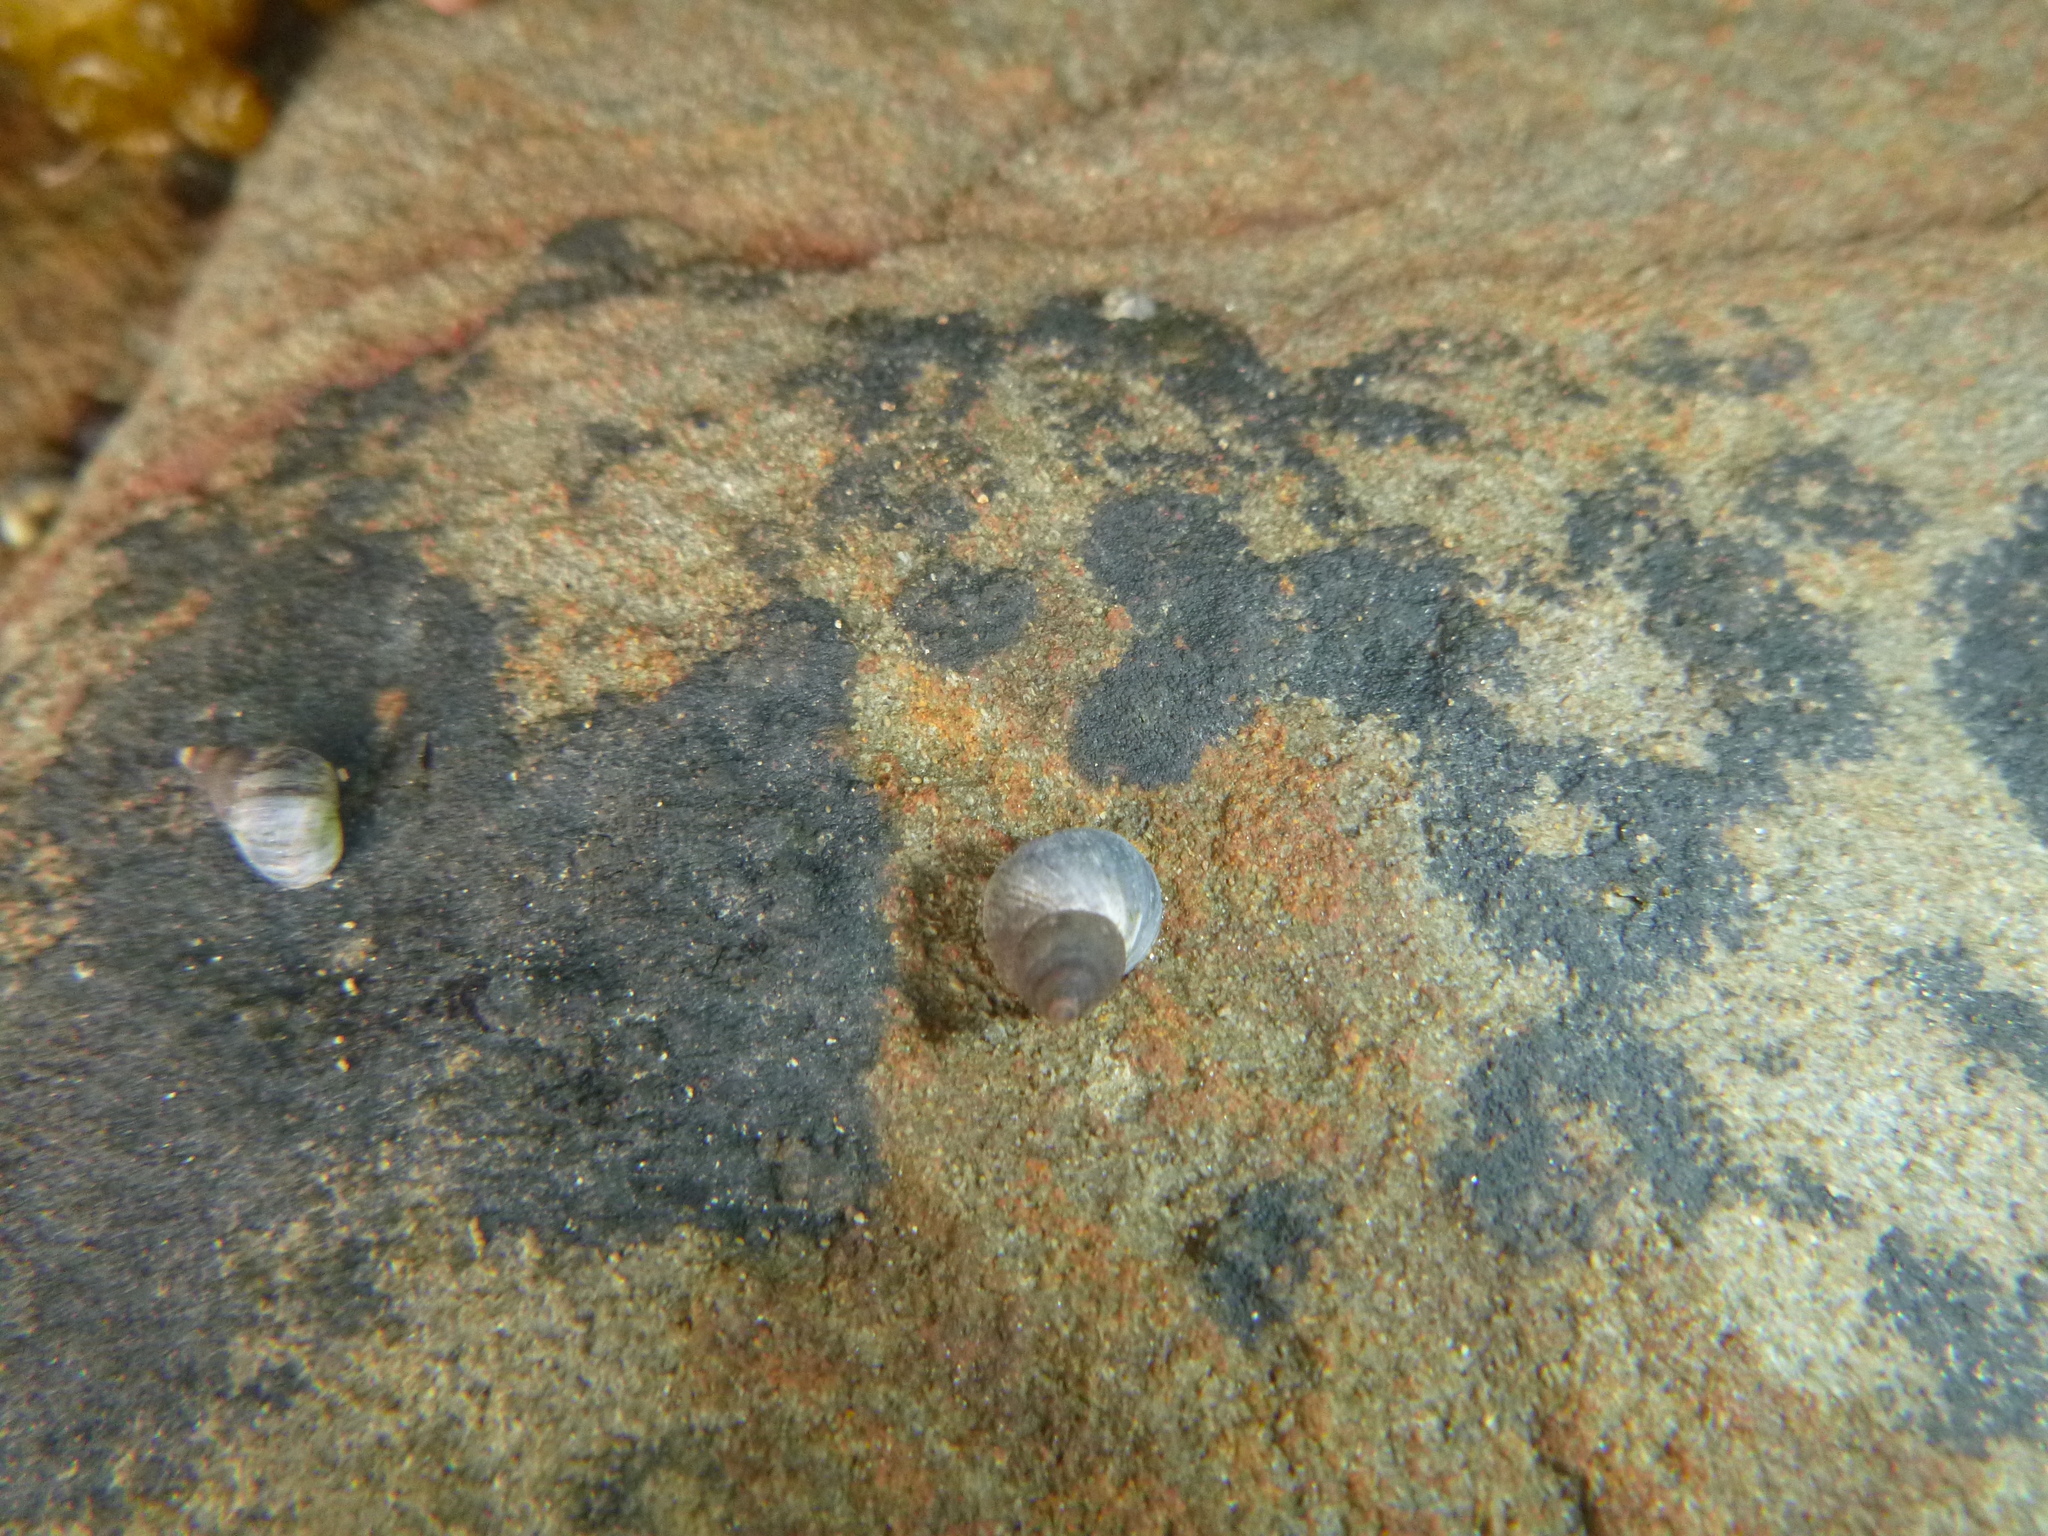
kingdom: Animalia
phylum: Mollusca
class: Gastropoda
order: Littorinimorpha
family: Littorinidae
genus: Austrolittorina
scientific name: Austrolittorina antipodum
